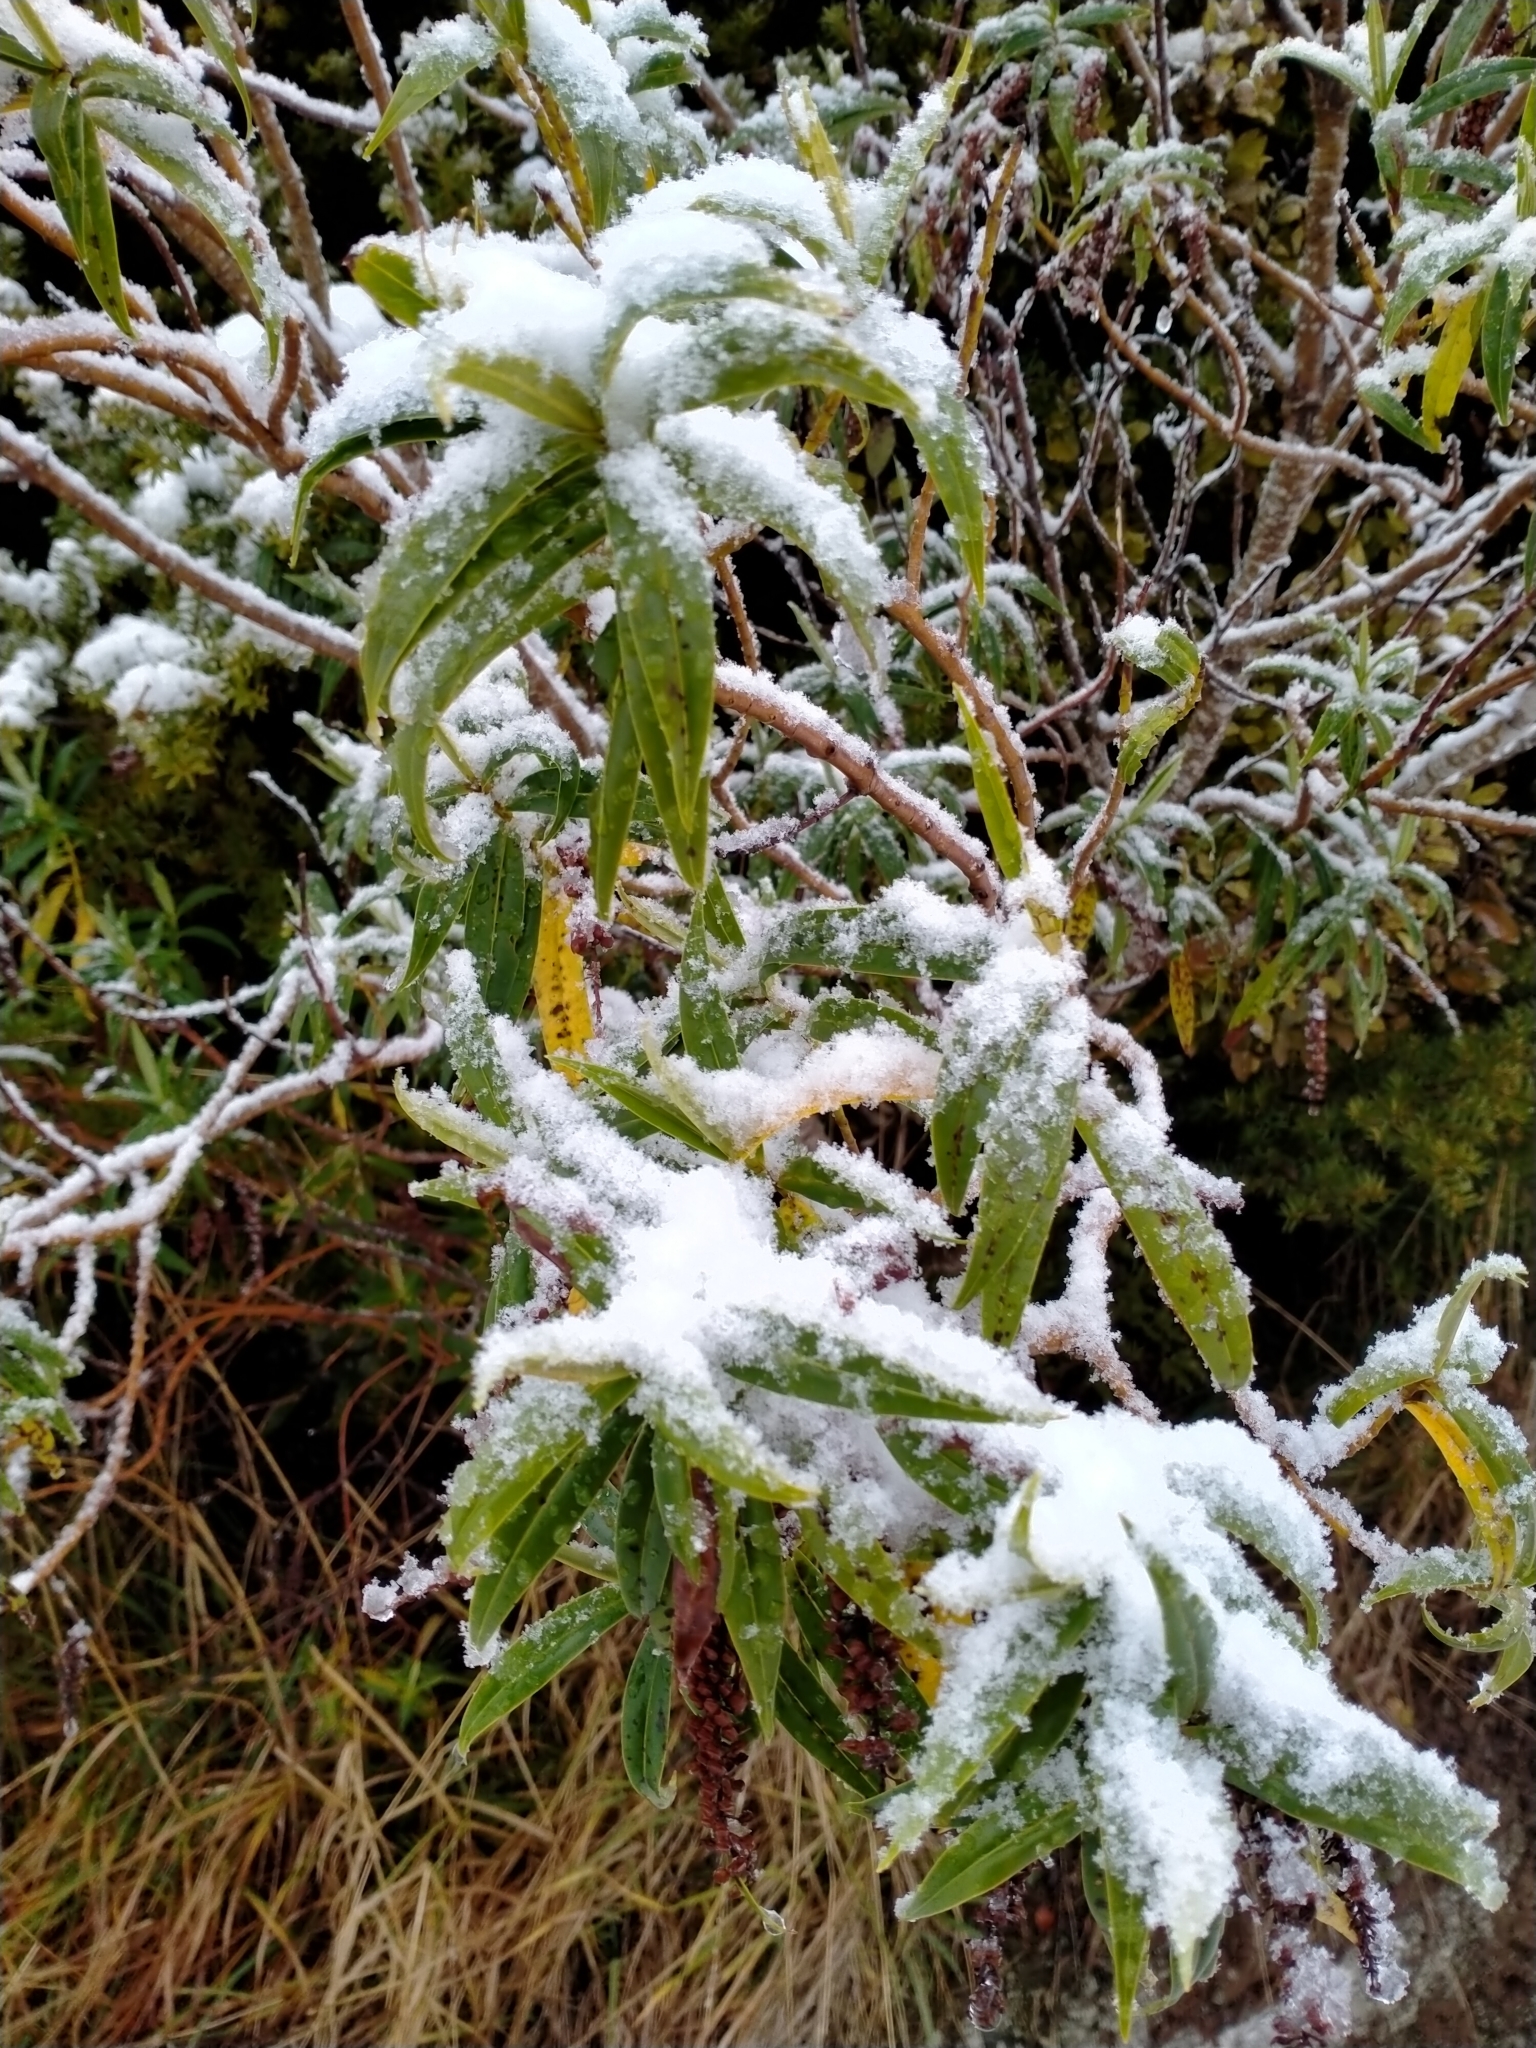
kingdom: Plantae
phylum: Tracheophyta
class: Magnoliopsida
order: Lamiales
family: Plantaginaceae
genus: Veronica
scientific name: Veronica salicifolia
